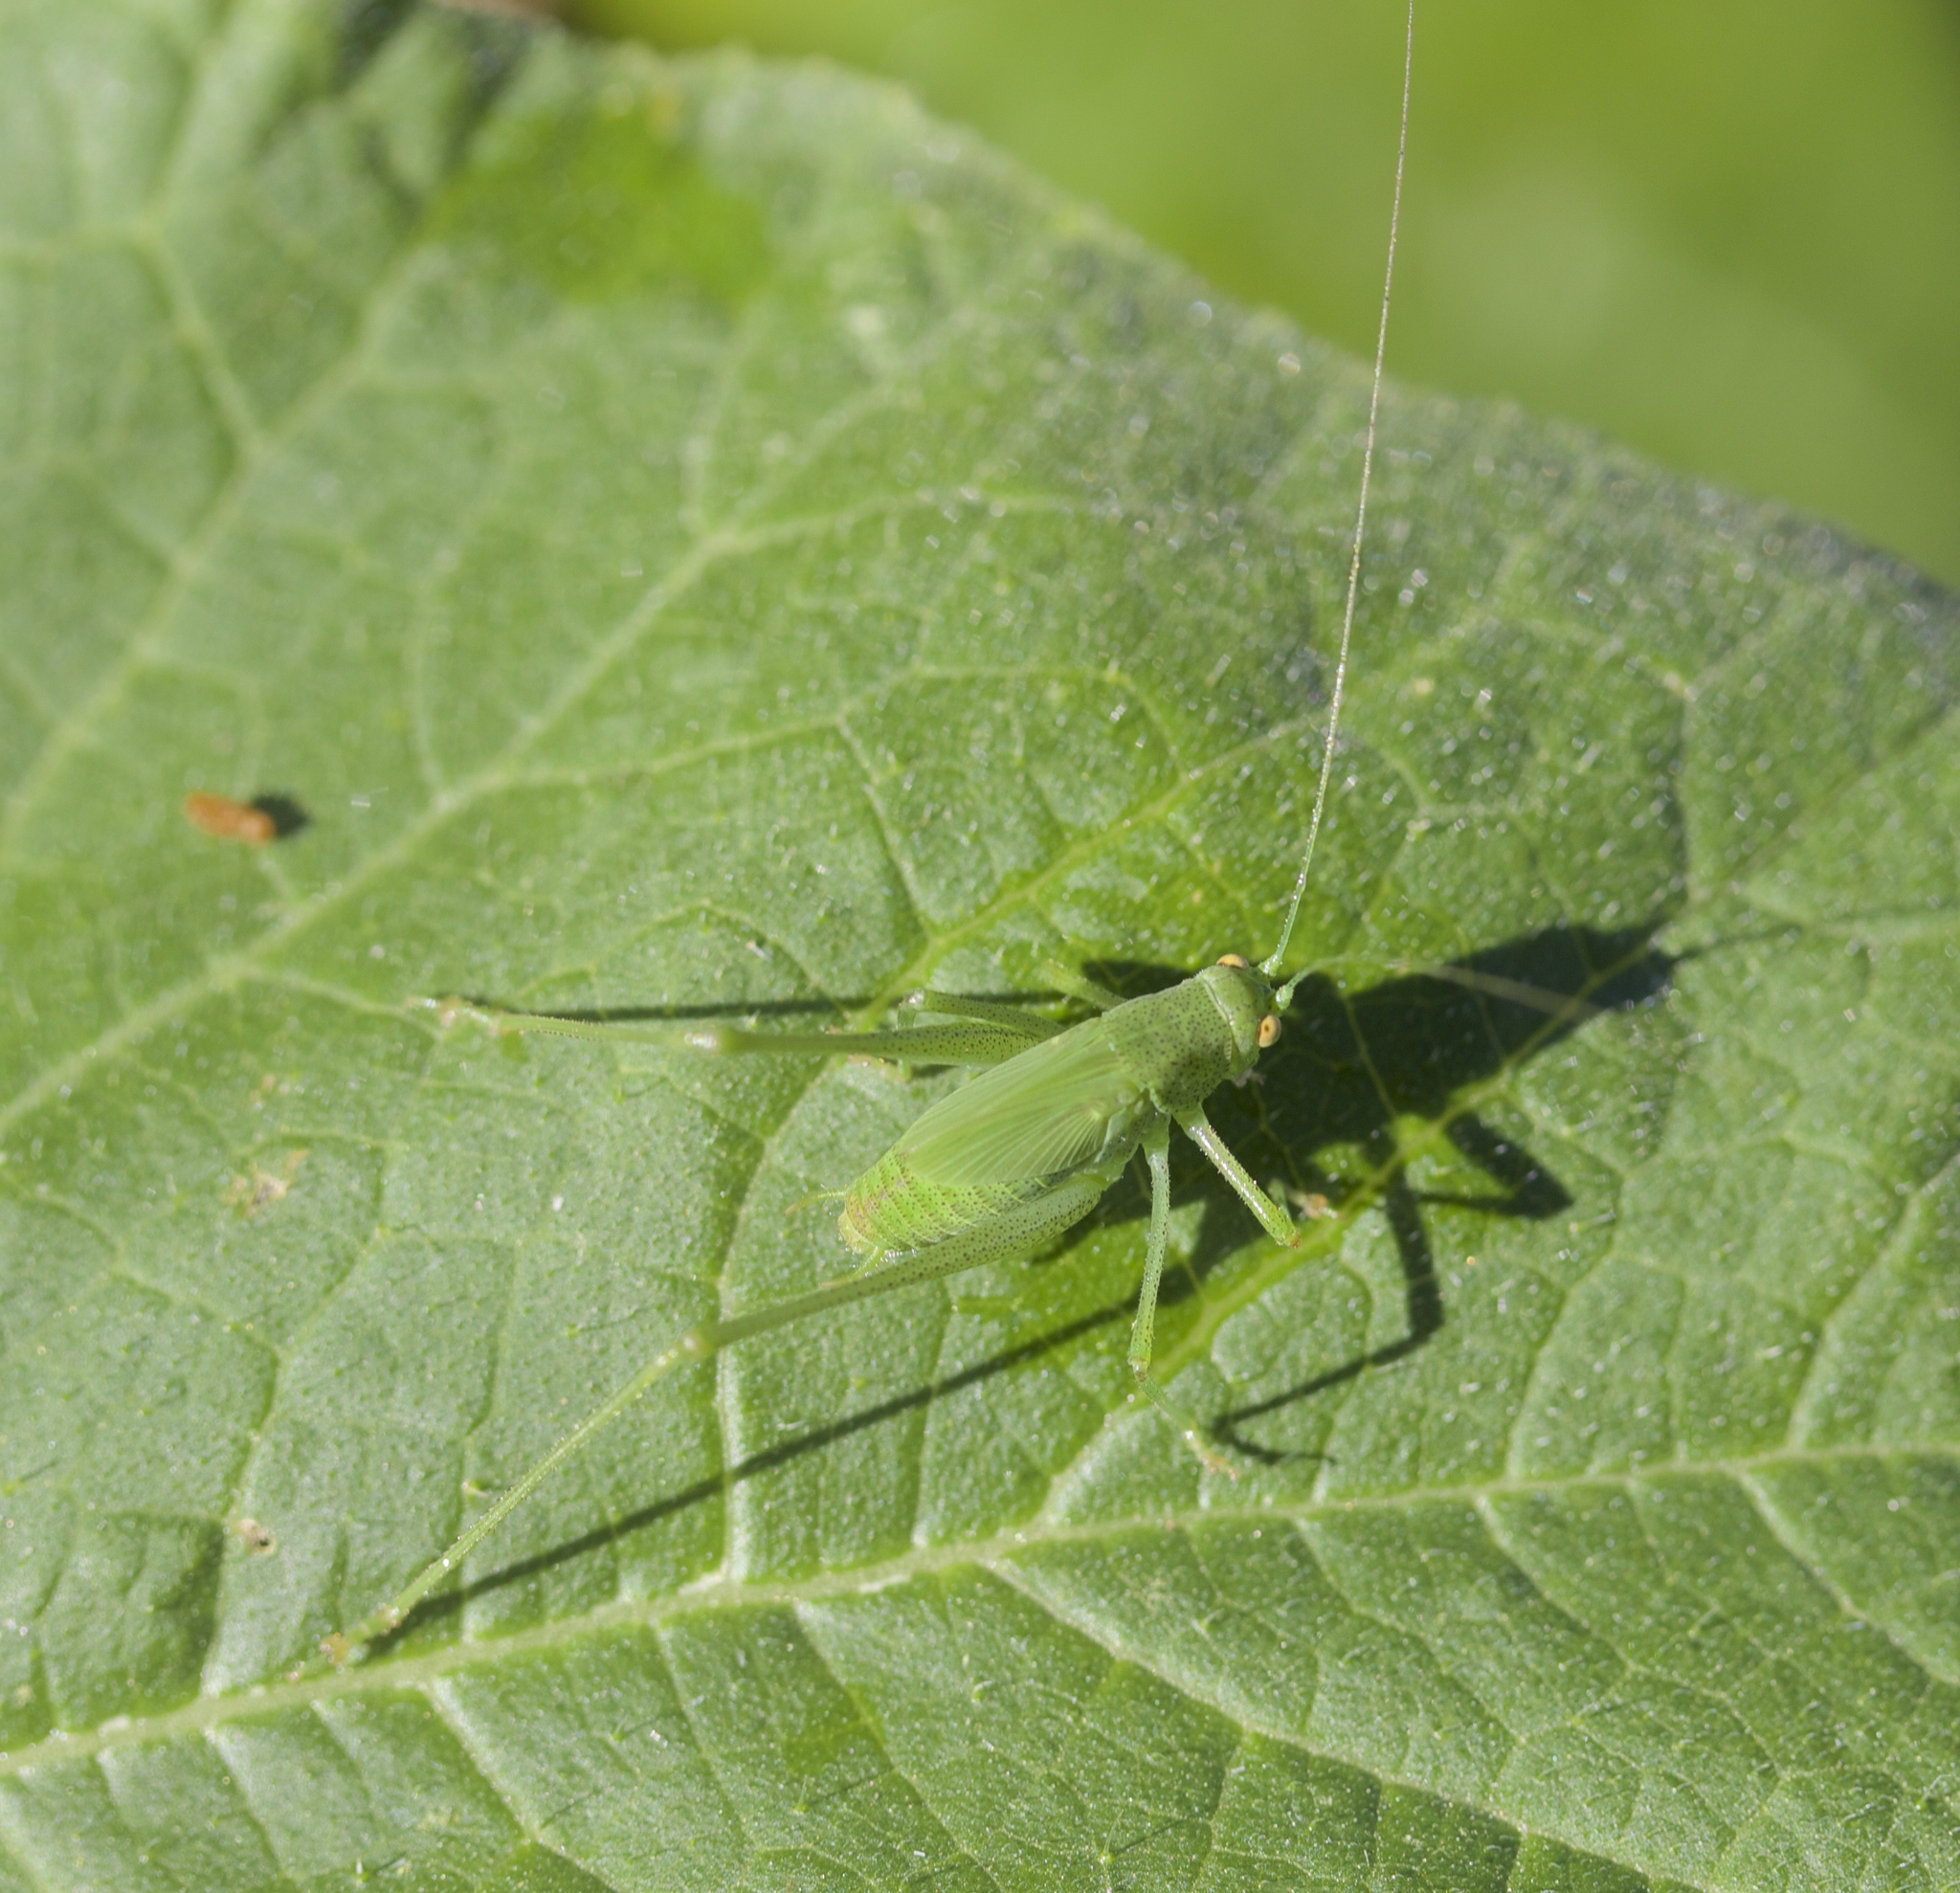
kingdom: Animalia
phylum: Arthropoda
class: Insecta
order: Orthoptera
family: Tettigoniidae
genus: Phaneroptera
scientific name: Phaneroptera nana
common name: Southern sickle bush-cricket
